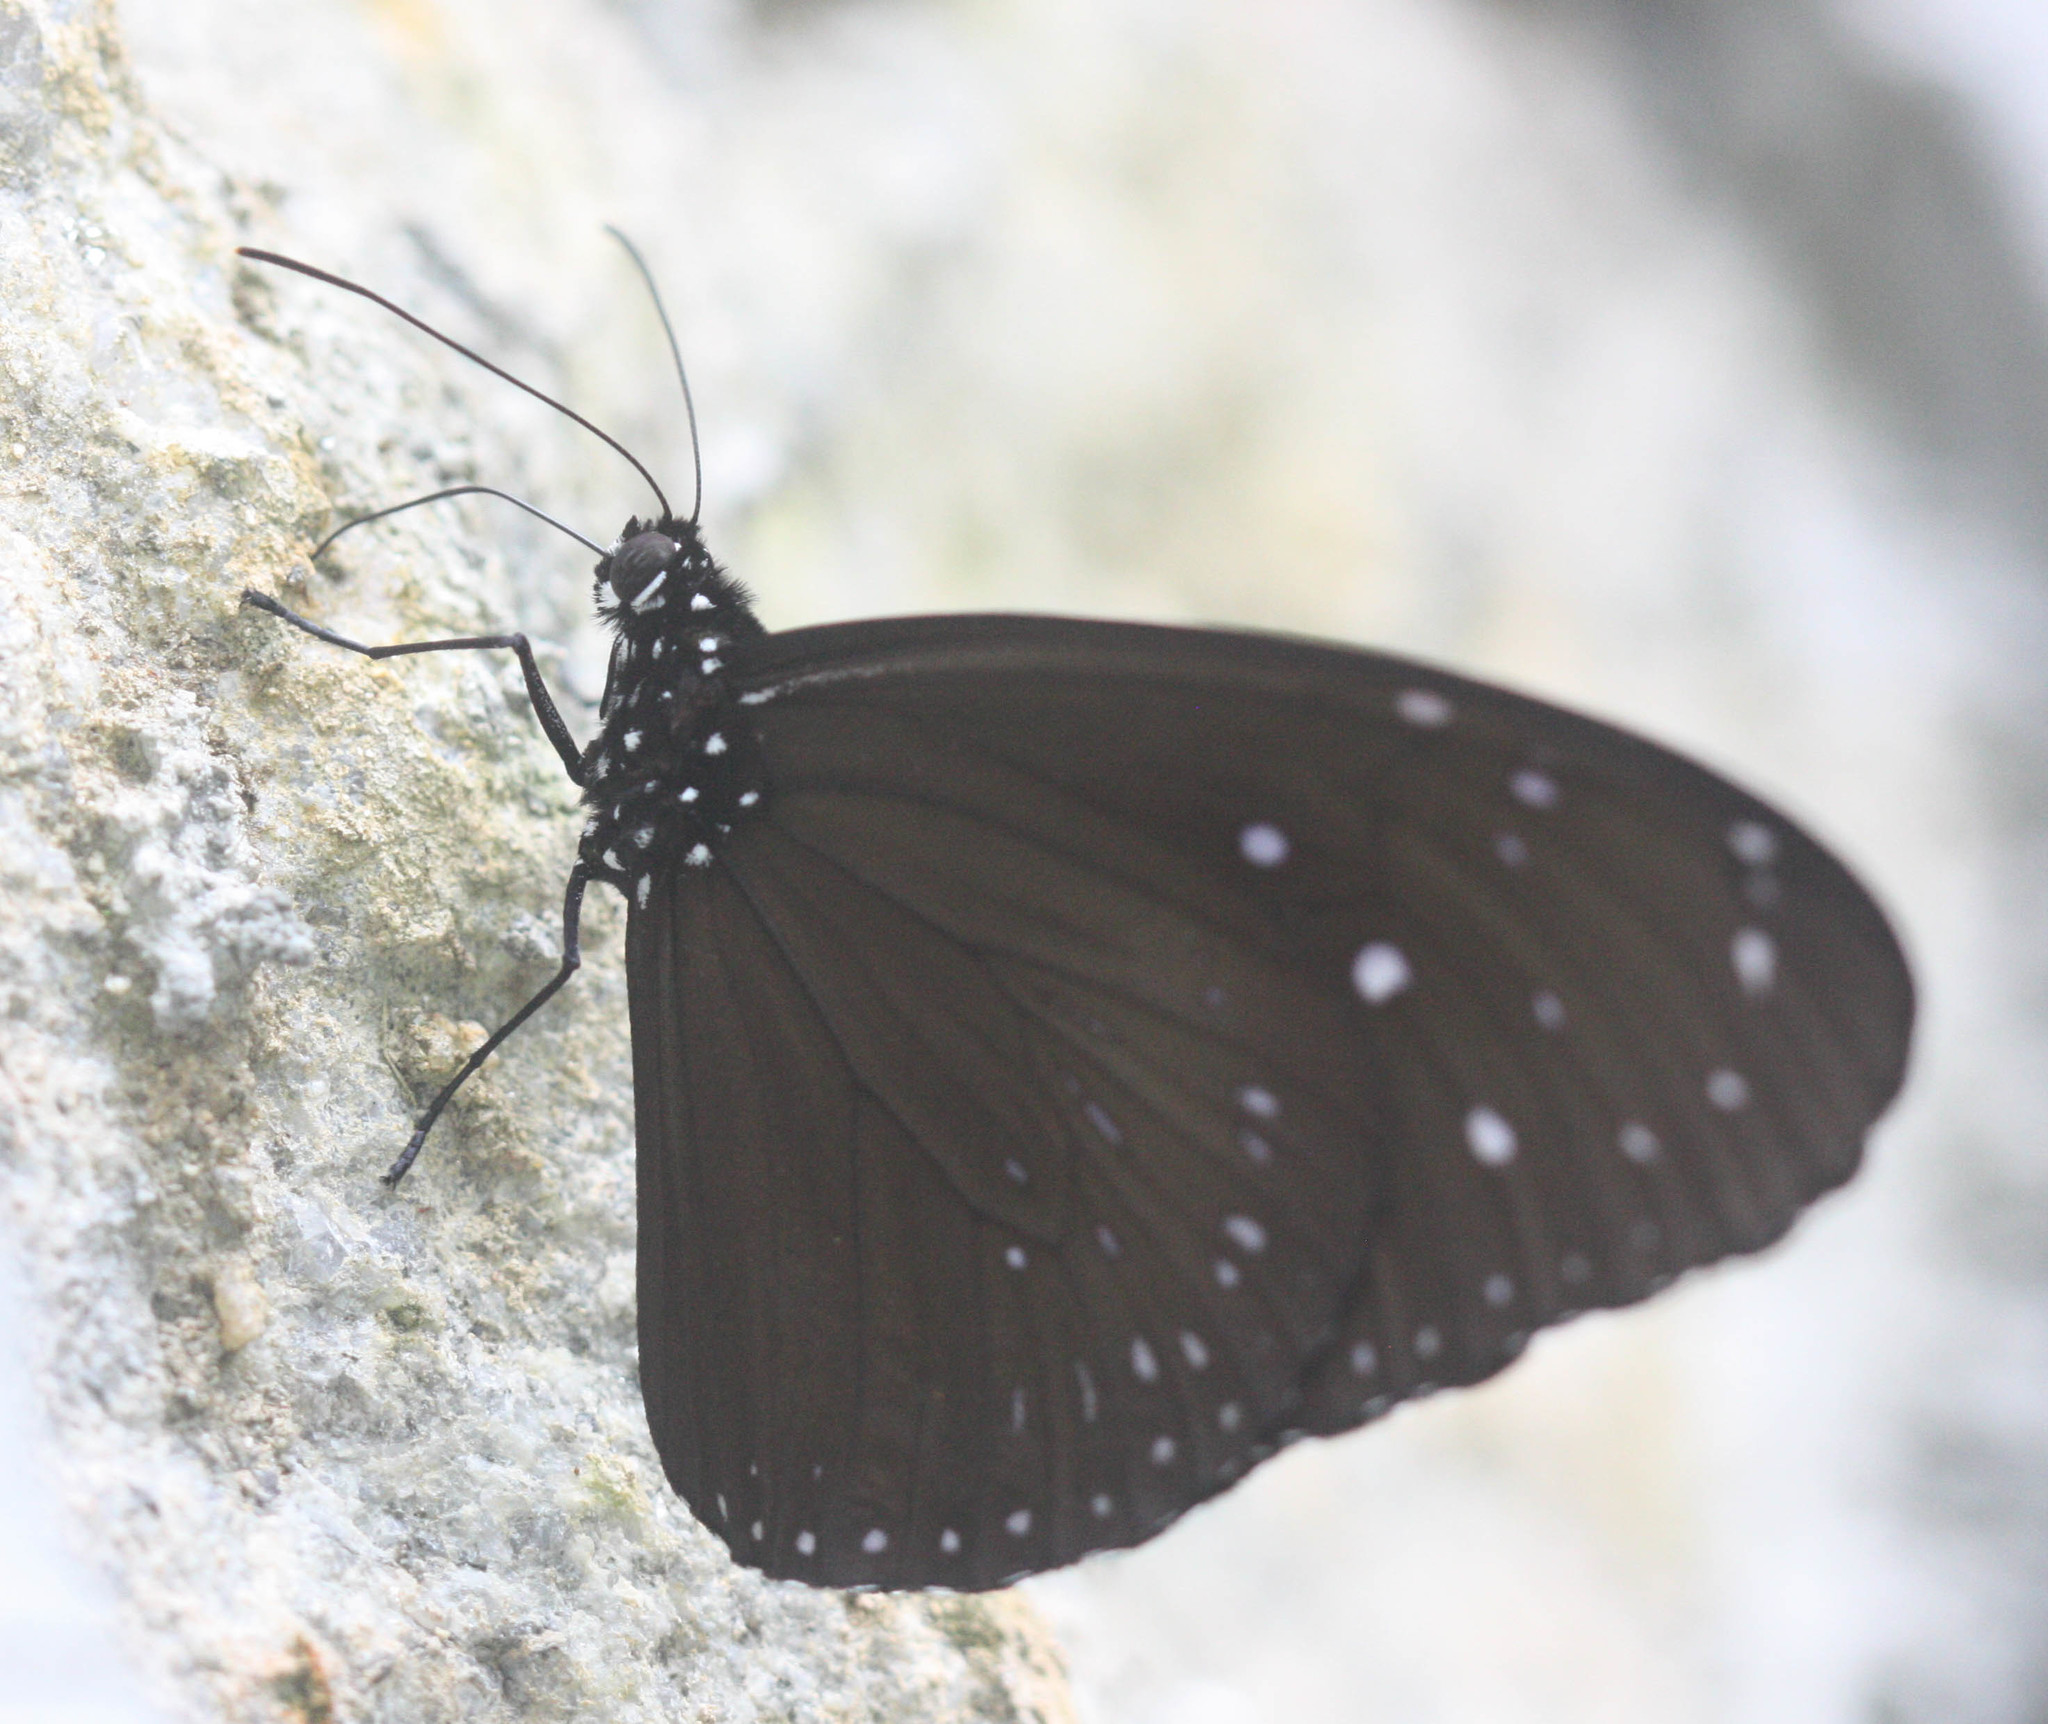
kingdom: Animalia
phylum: Arthropoda
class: Insecta
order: Lepidoptera
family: Nymphalidae
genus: Euploea
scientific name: Euploea mulciber
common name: Striped blue crow butterfly
